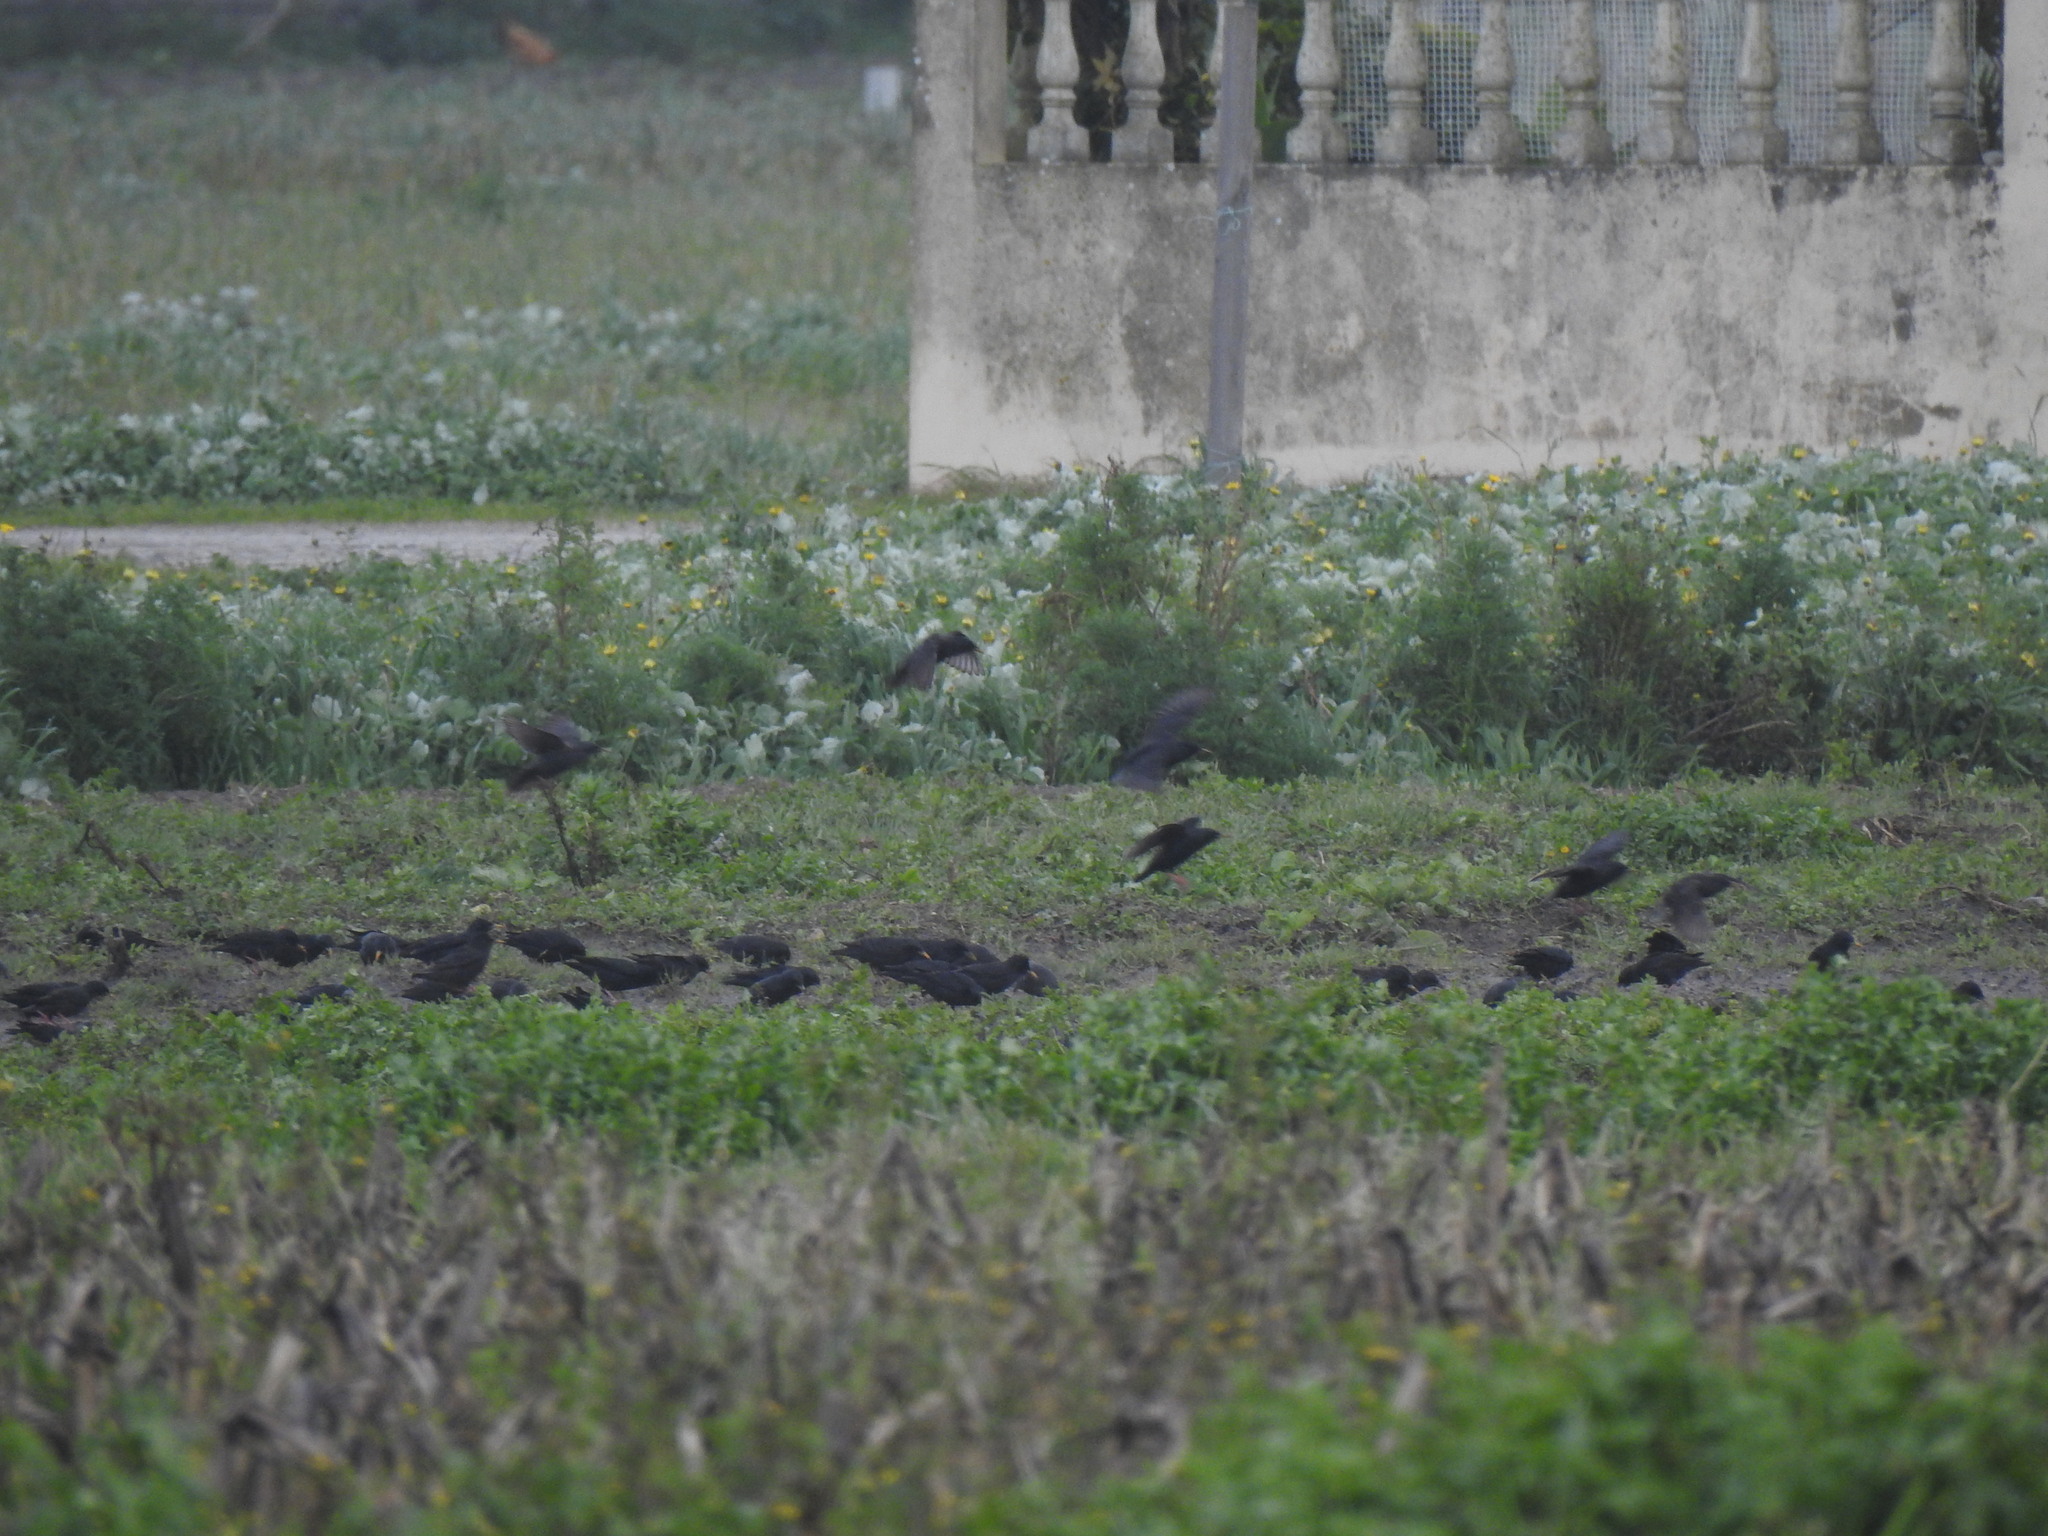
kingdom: Animalia
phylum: Chordata
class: Aves
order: Passeriformes
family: Sturnidae
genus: Sturnus
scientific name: Sturnus unicolor
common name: Spotless starling
